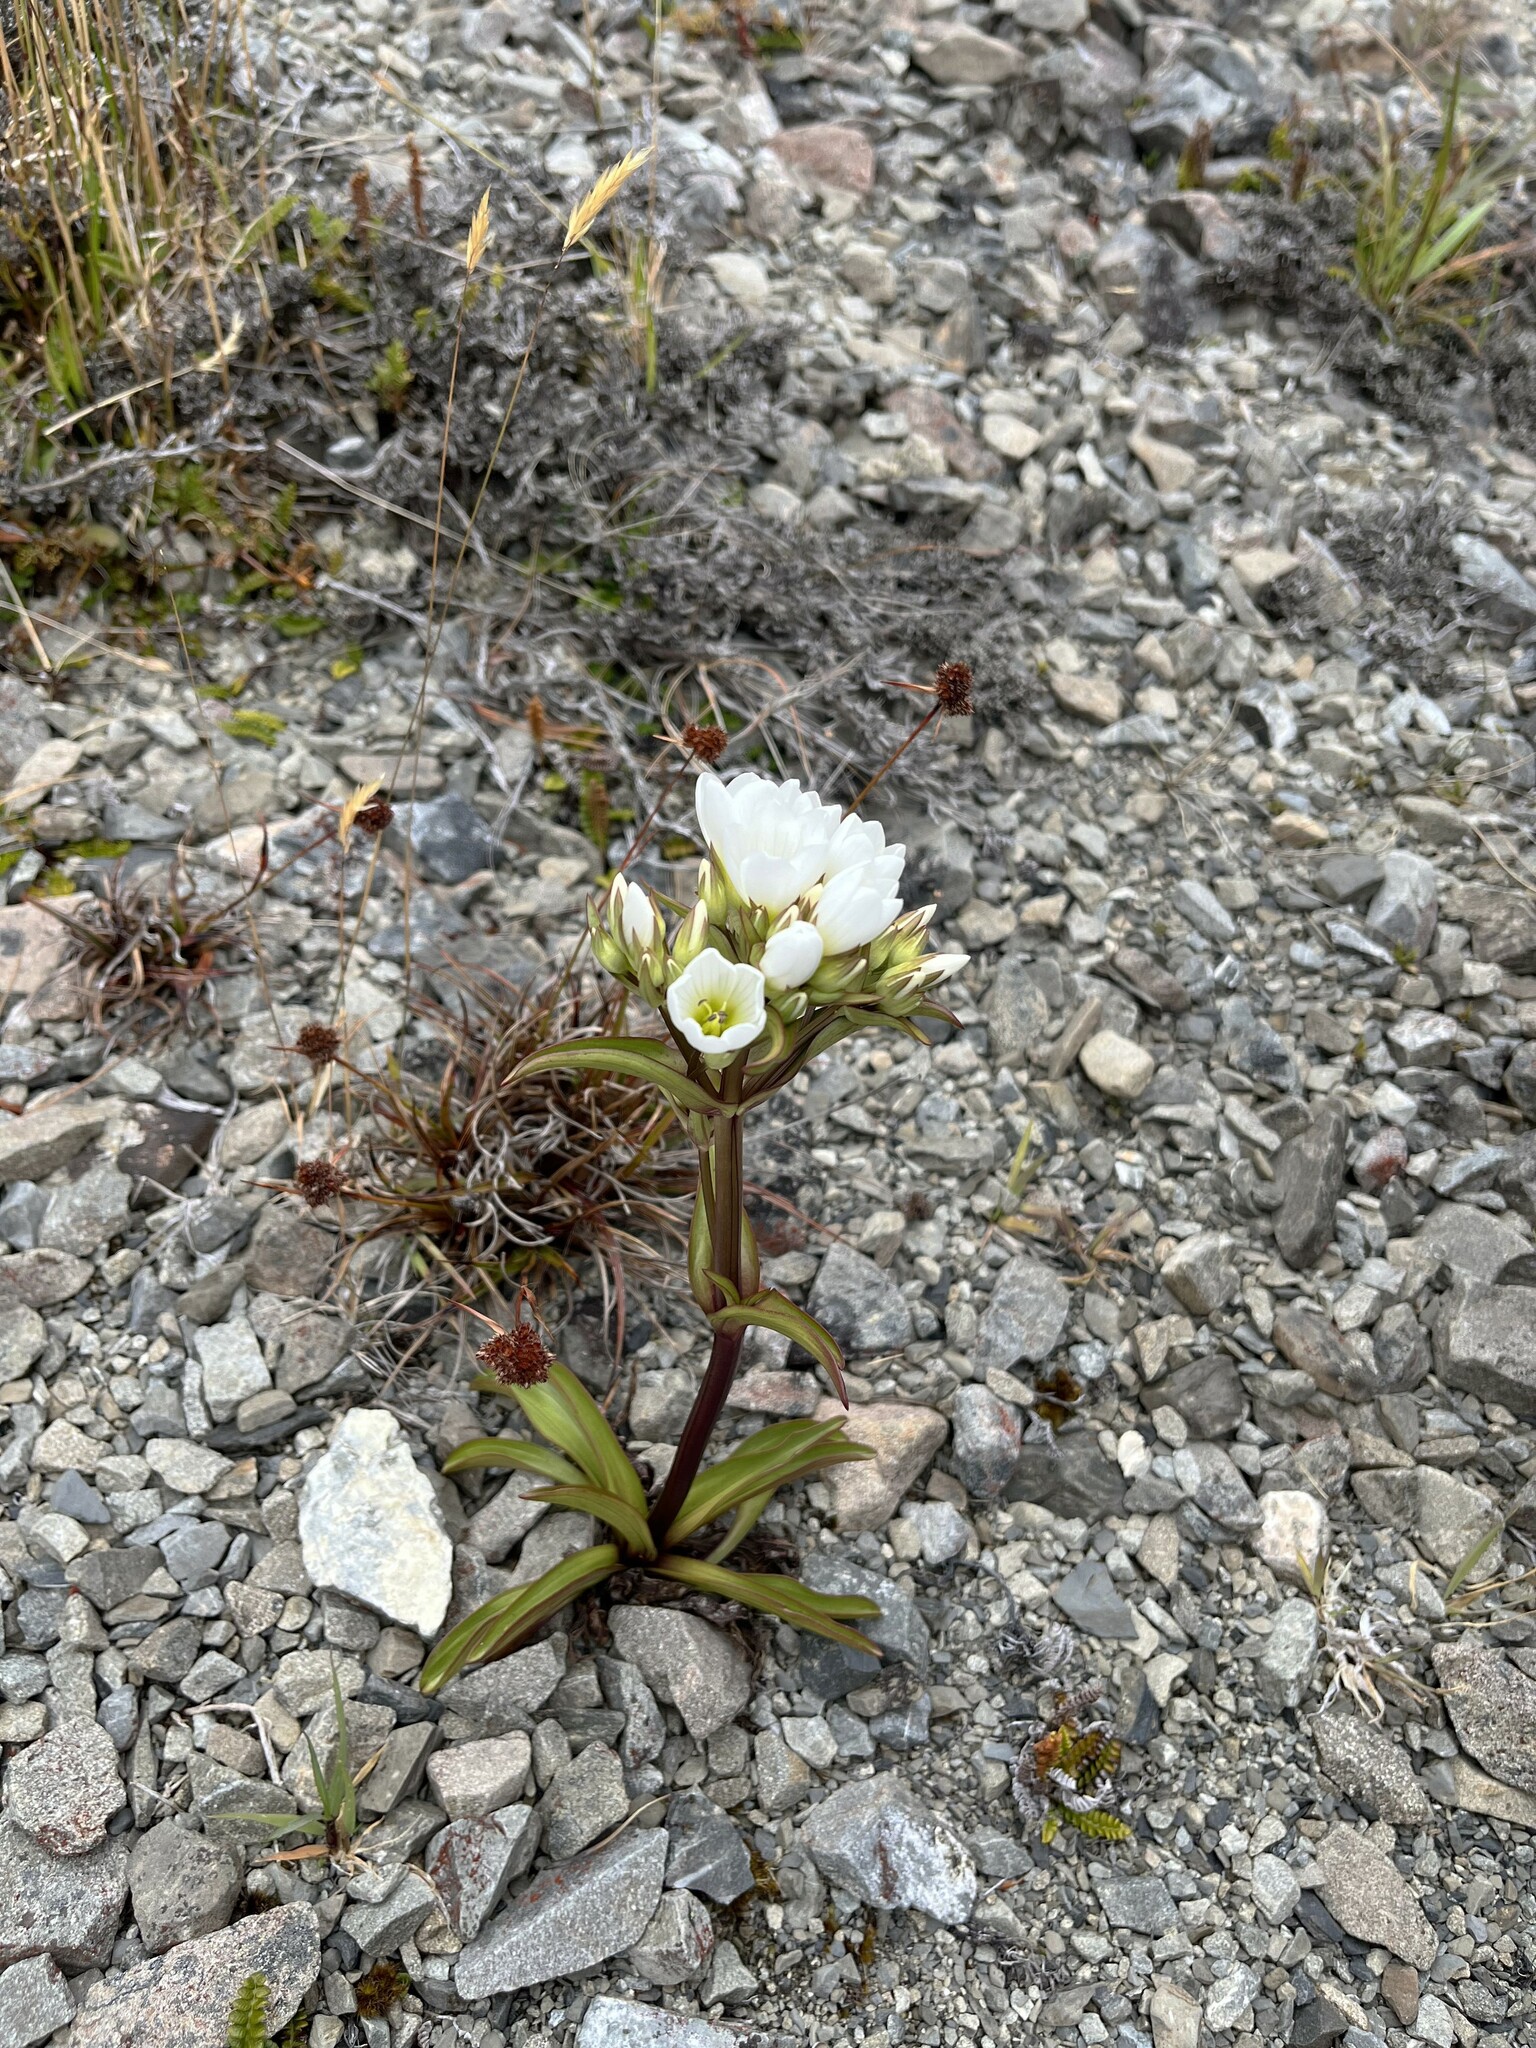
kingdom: Plantae
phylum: Tracheophyta
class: Magnoliopsida
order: Gentianales
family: Gentianaceae
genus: Gentianella
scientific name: Gentianella corymbifera
